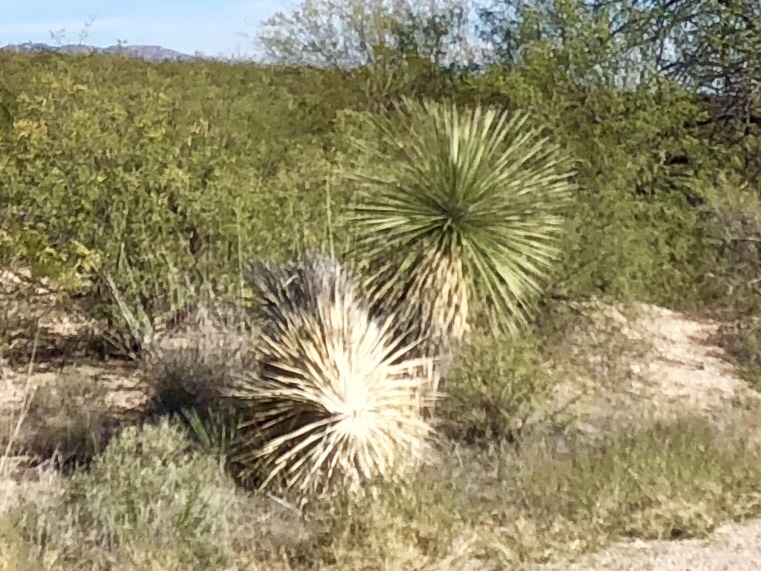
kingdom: Plantae
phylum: Tracheophyta
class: Liliopsida
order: Asparagales
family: Asparagaceae
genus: Yucca
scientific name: Yucca elata
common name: Palmella
